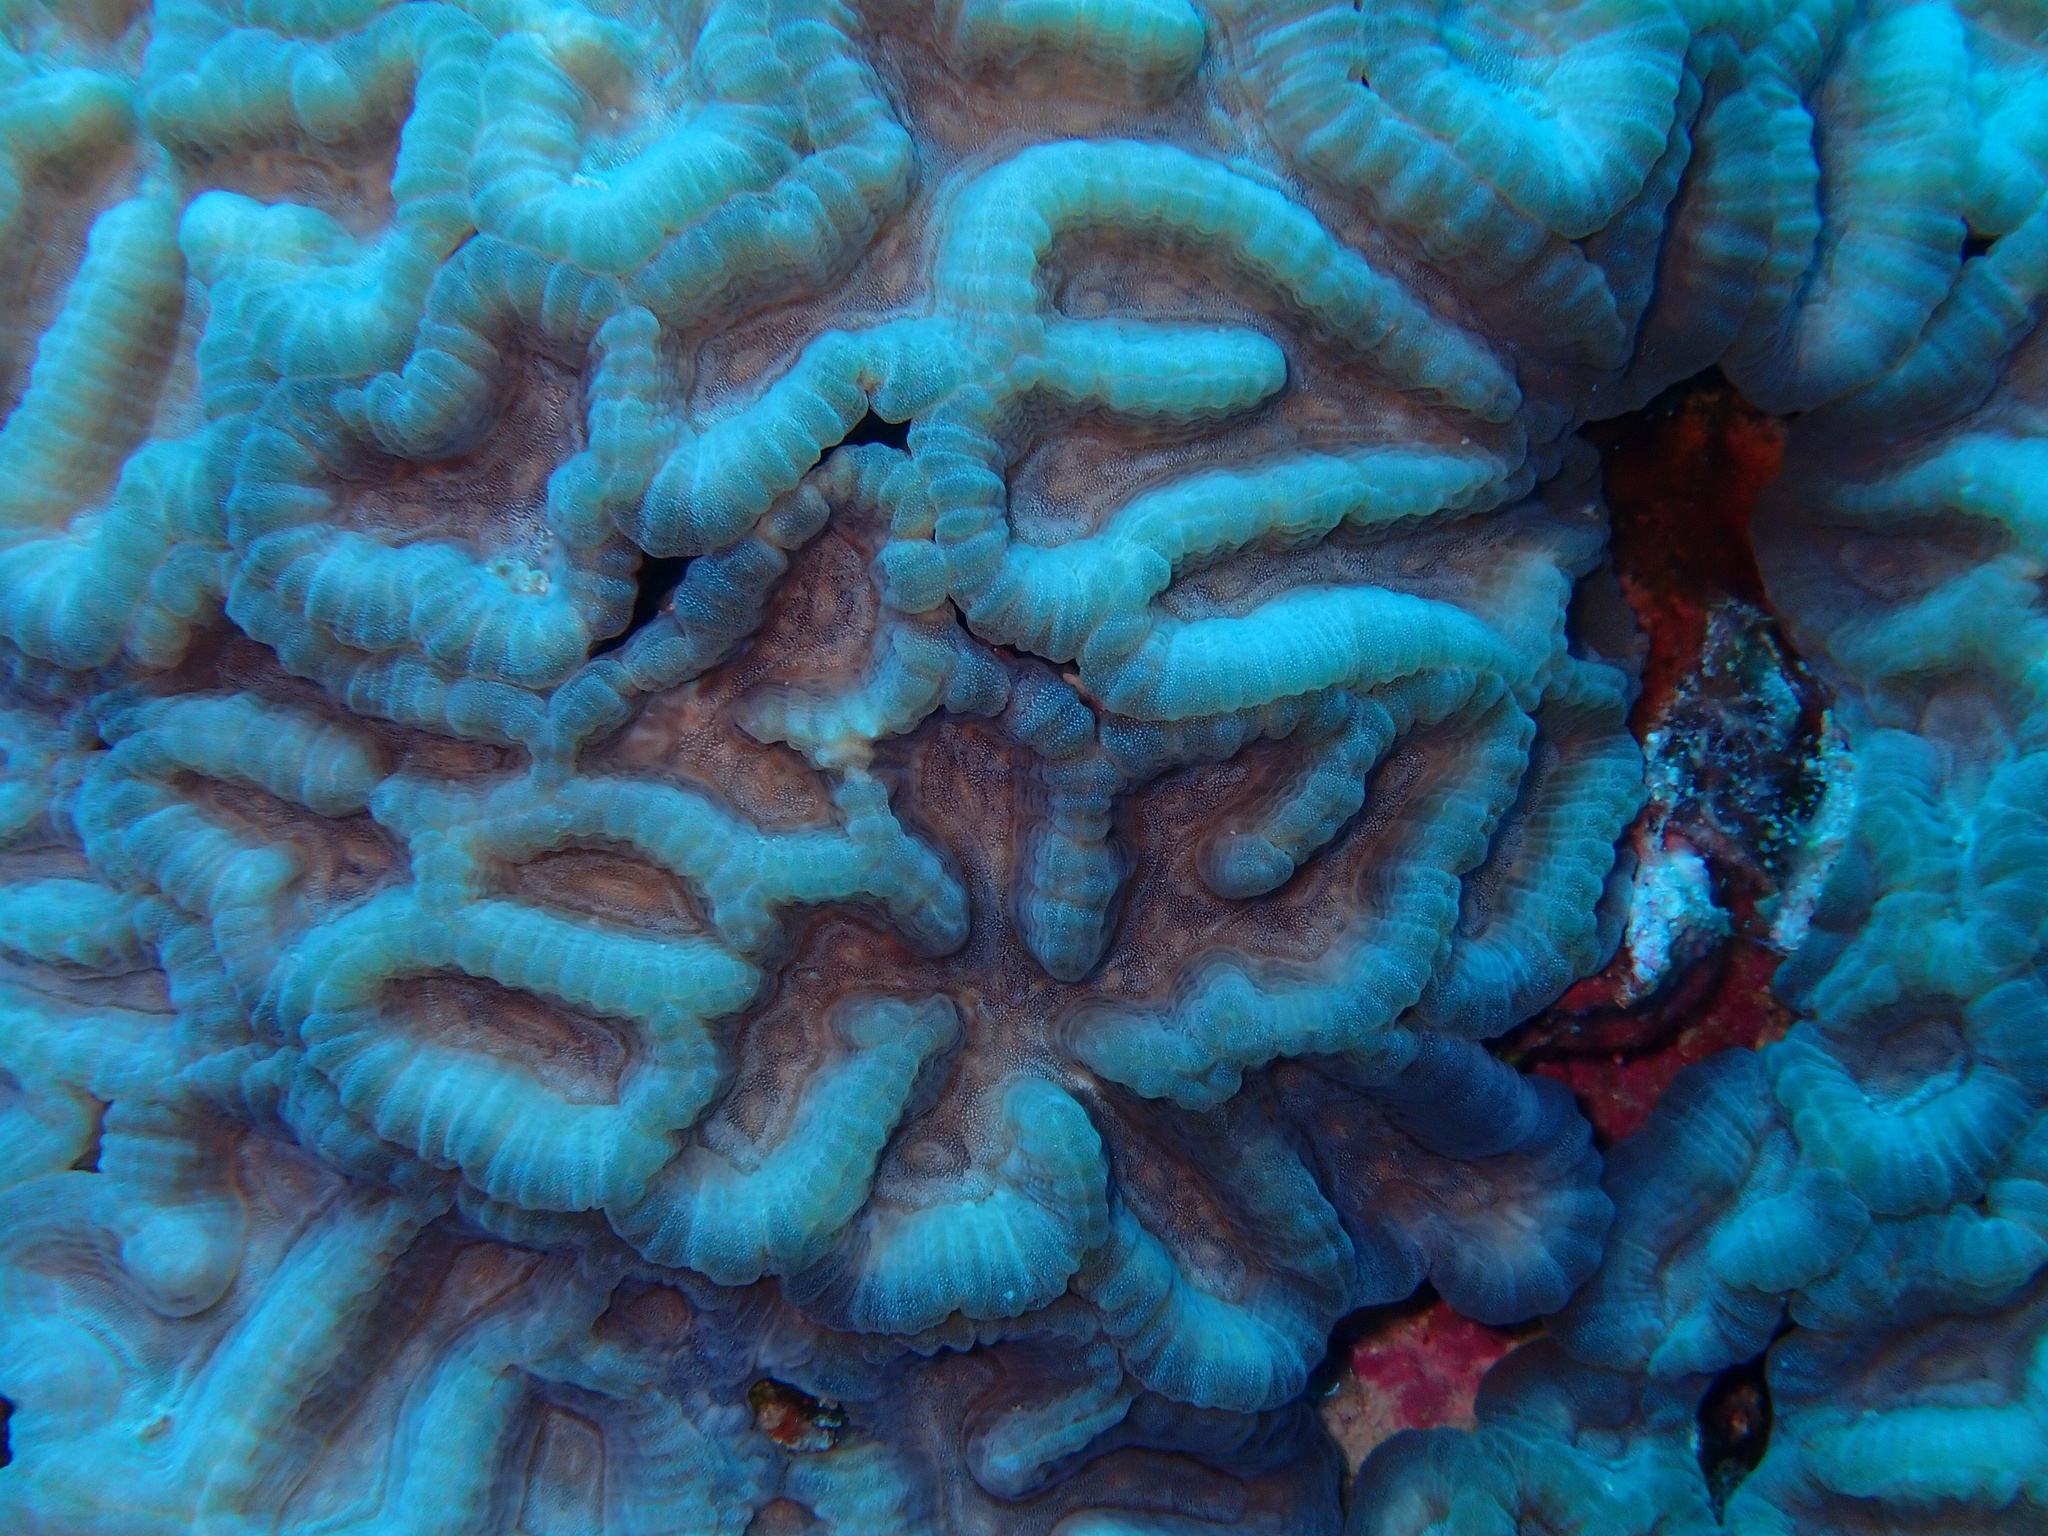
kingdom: Animalia
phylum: Cnidaria
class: Anthozoa
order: Scleractinia
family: Merulinidae
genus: Oulophyllia
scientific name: Oulophyllia wellsi
